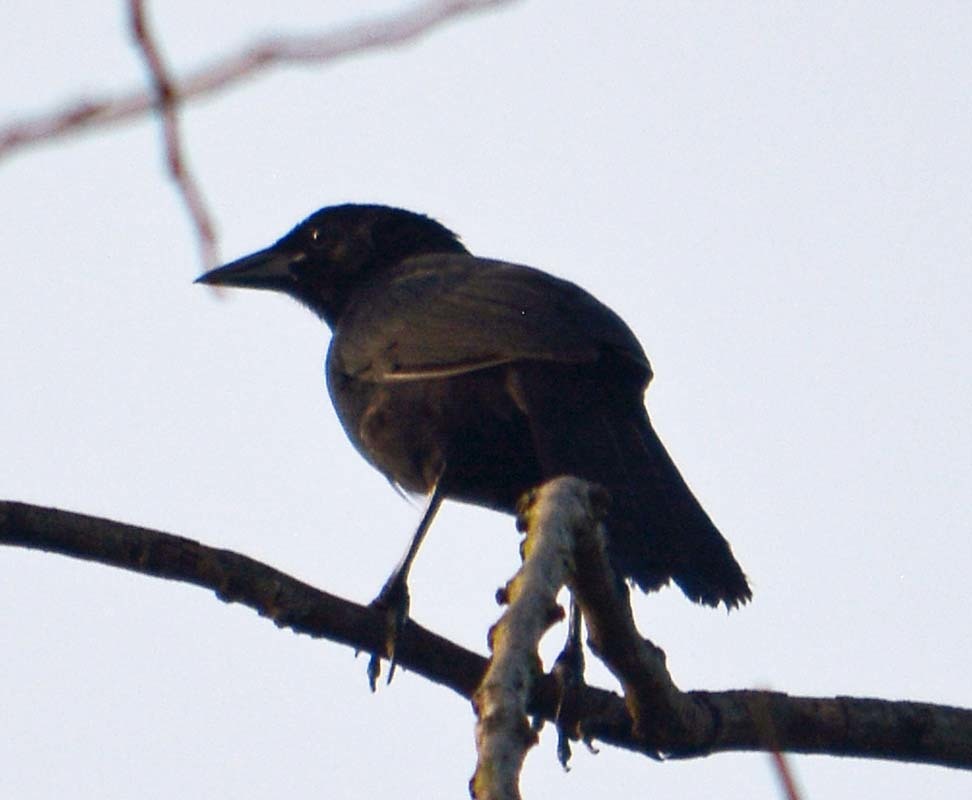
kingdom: Animalia
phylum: Chordata
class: Aves
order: Passeriformes
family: Icteridae
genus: Dives
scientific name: Dives dives
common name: Melodious blackbird
